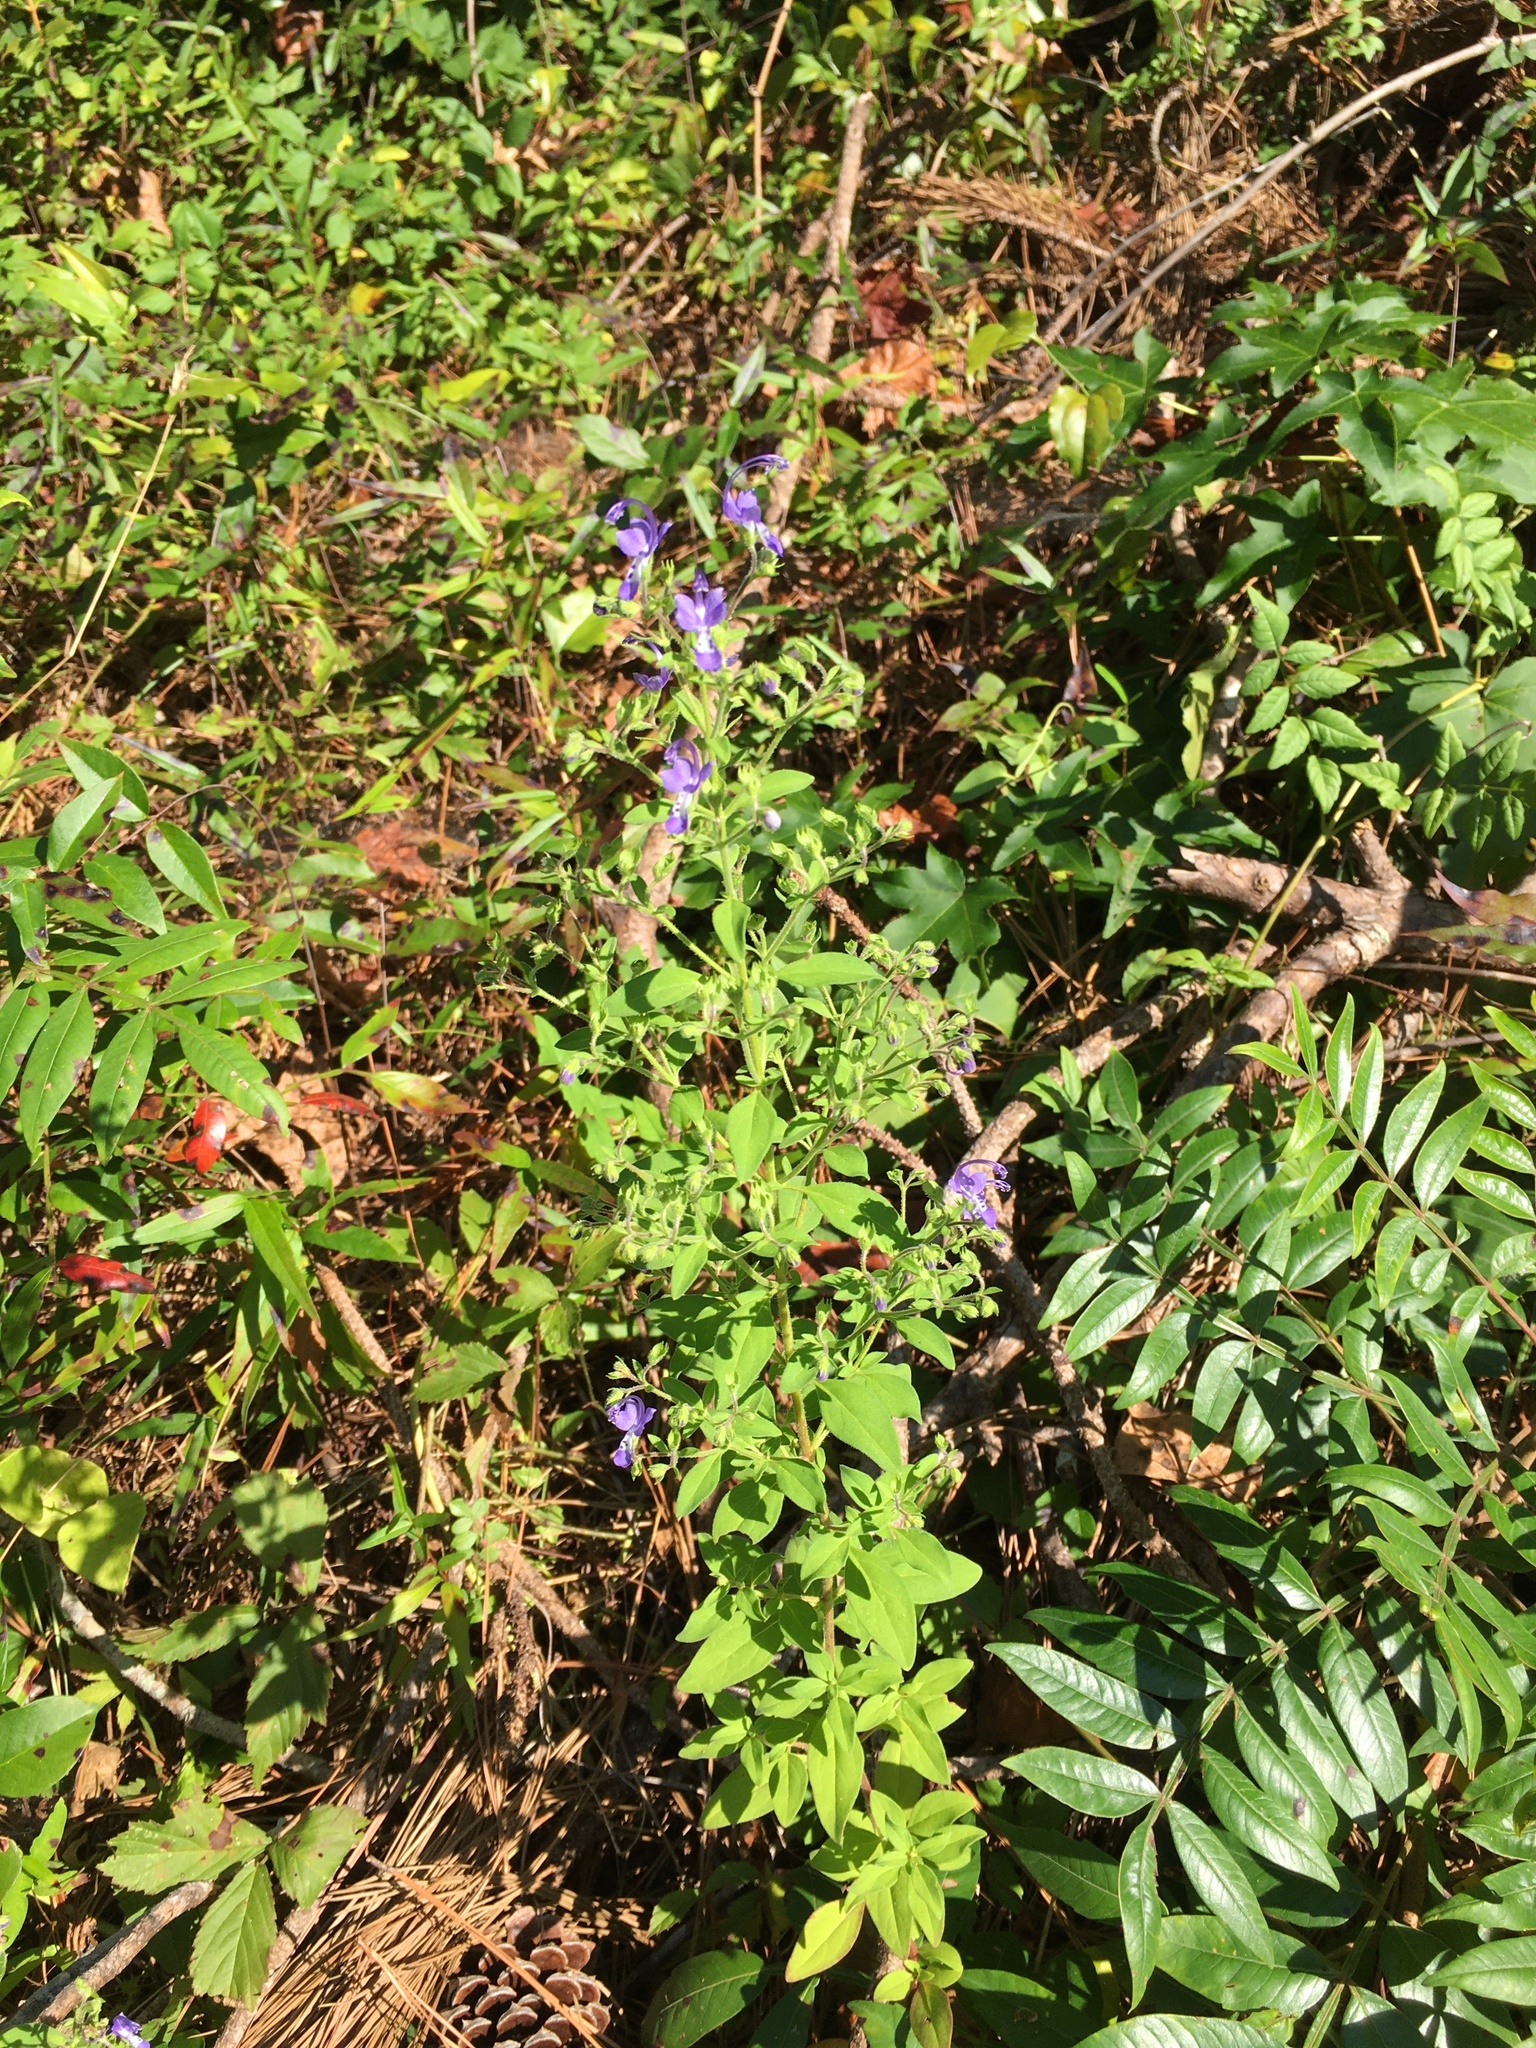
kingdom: Plantae
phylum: Tracheophyta
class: Magnoliopsida
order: Lamiales
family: Lamiaceae
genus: Trichostema
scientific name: Trichostema dichotomum
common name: Bastard pennyroyal
